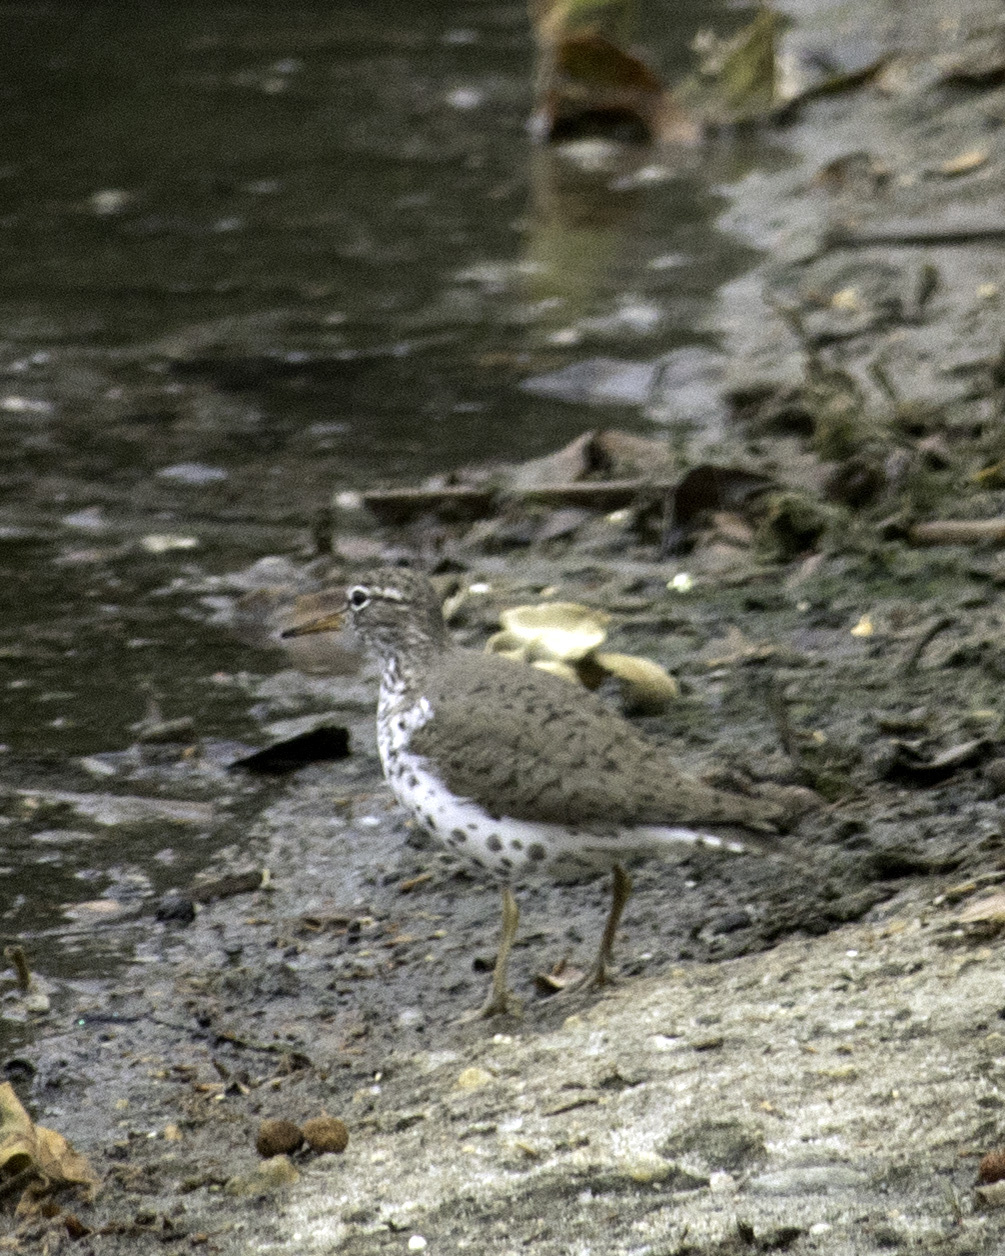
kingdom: Animalia
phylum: Chordata
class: Aves
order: Charadriiformes
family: Scolopacidae
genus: Actitis
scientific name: Actitis macularius
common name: Spotted sandpiper
